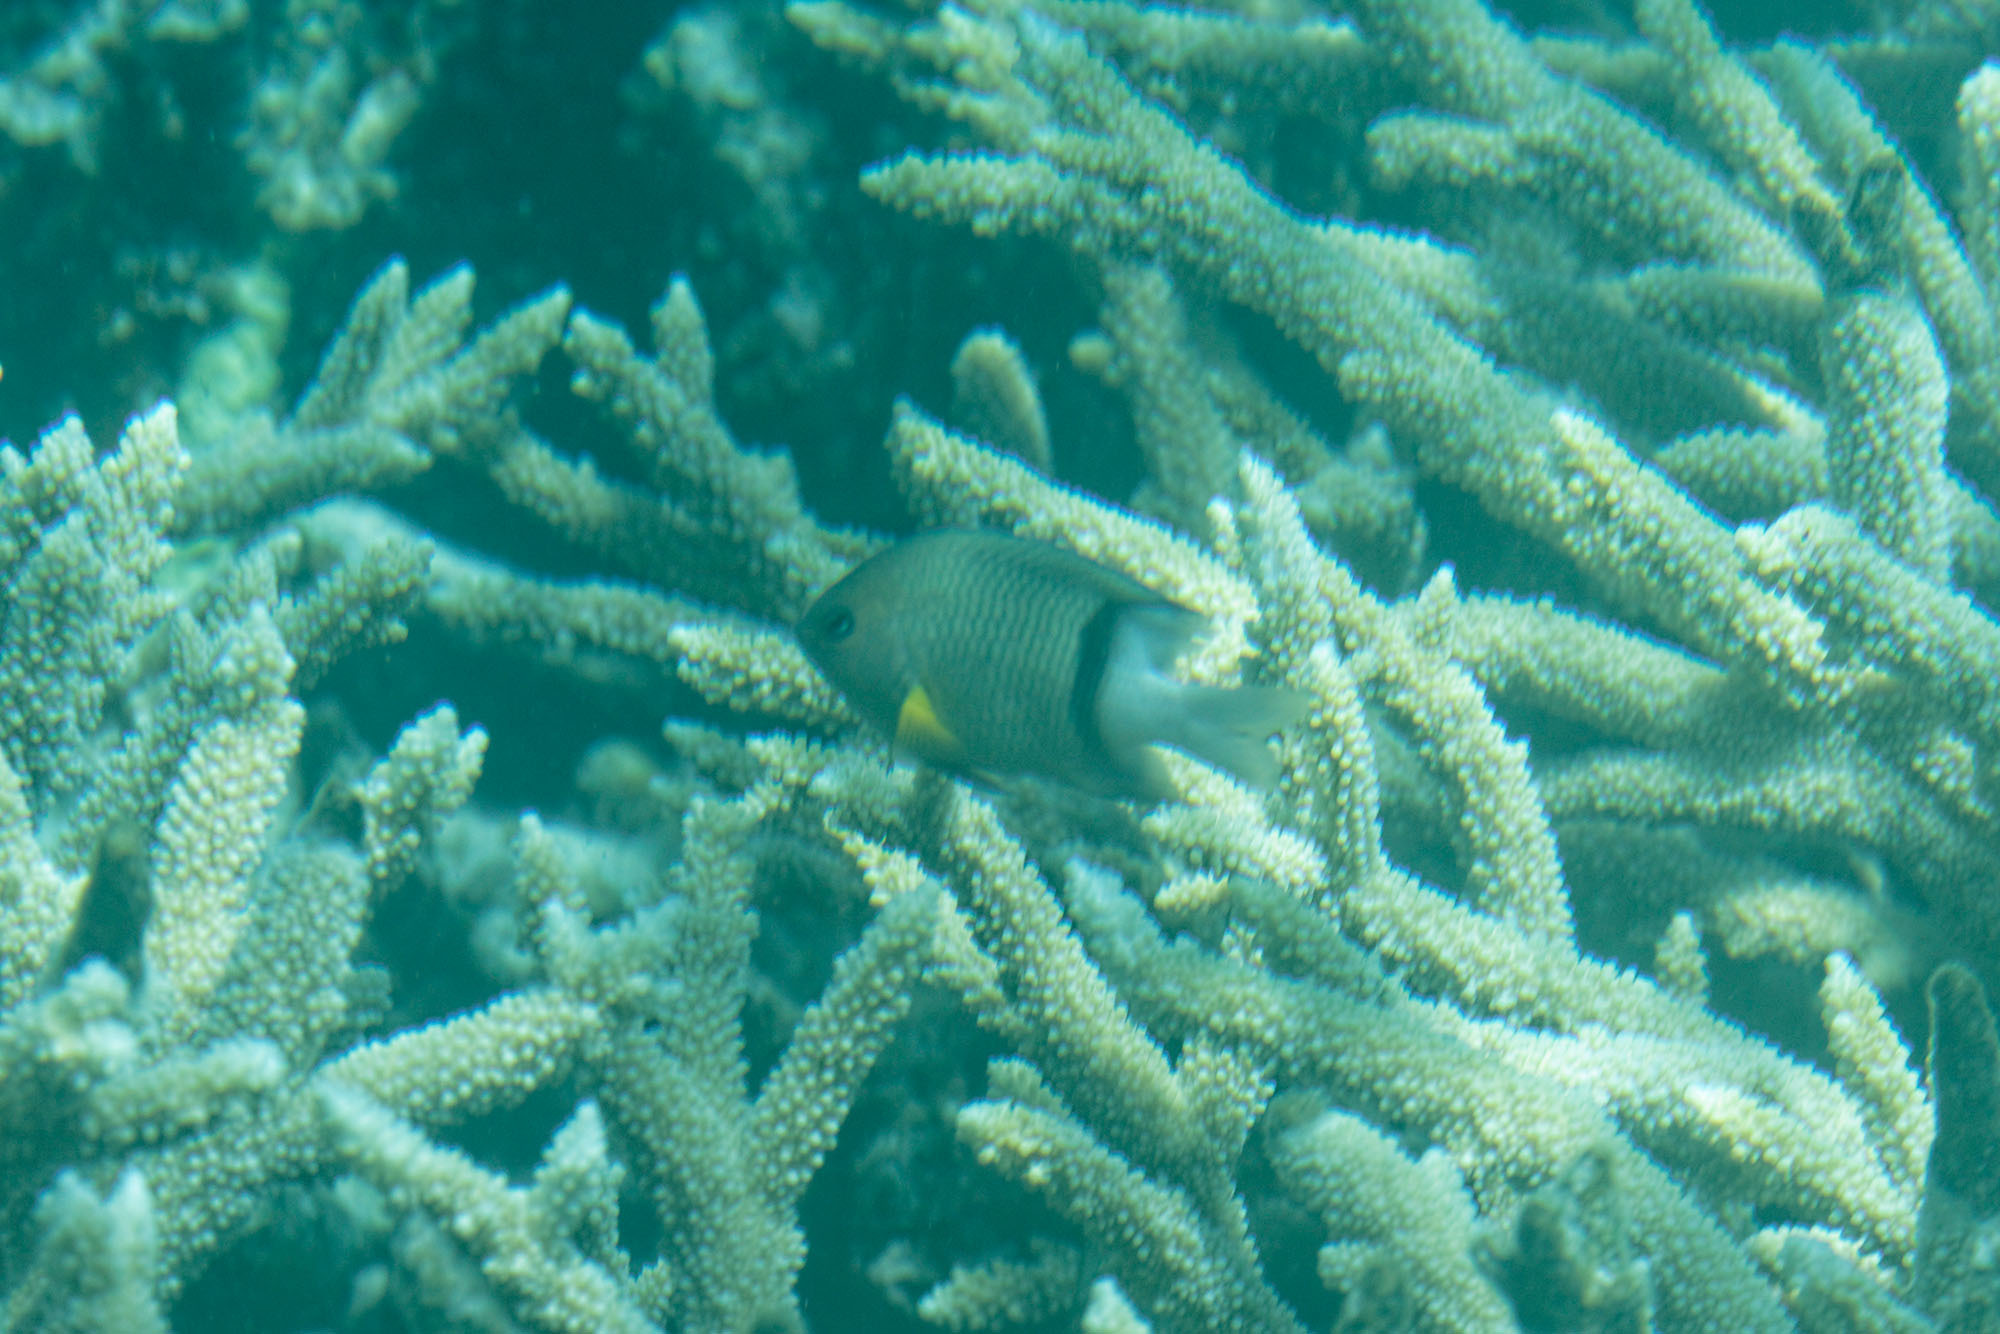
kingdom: Animalia
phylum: Chordata
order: Perciformes
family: Pomacentridae
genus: Plectroglyphidodon
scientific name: Plectroglyphidodon dickii
